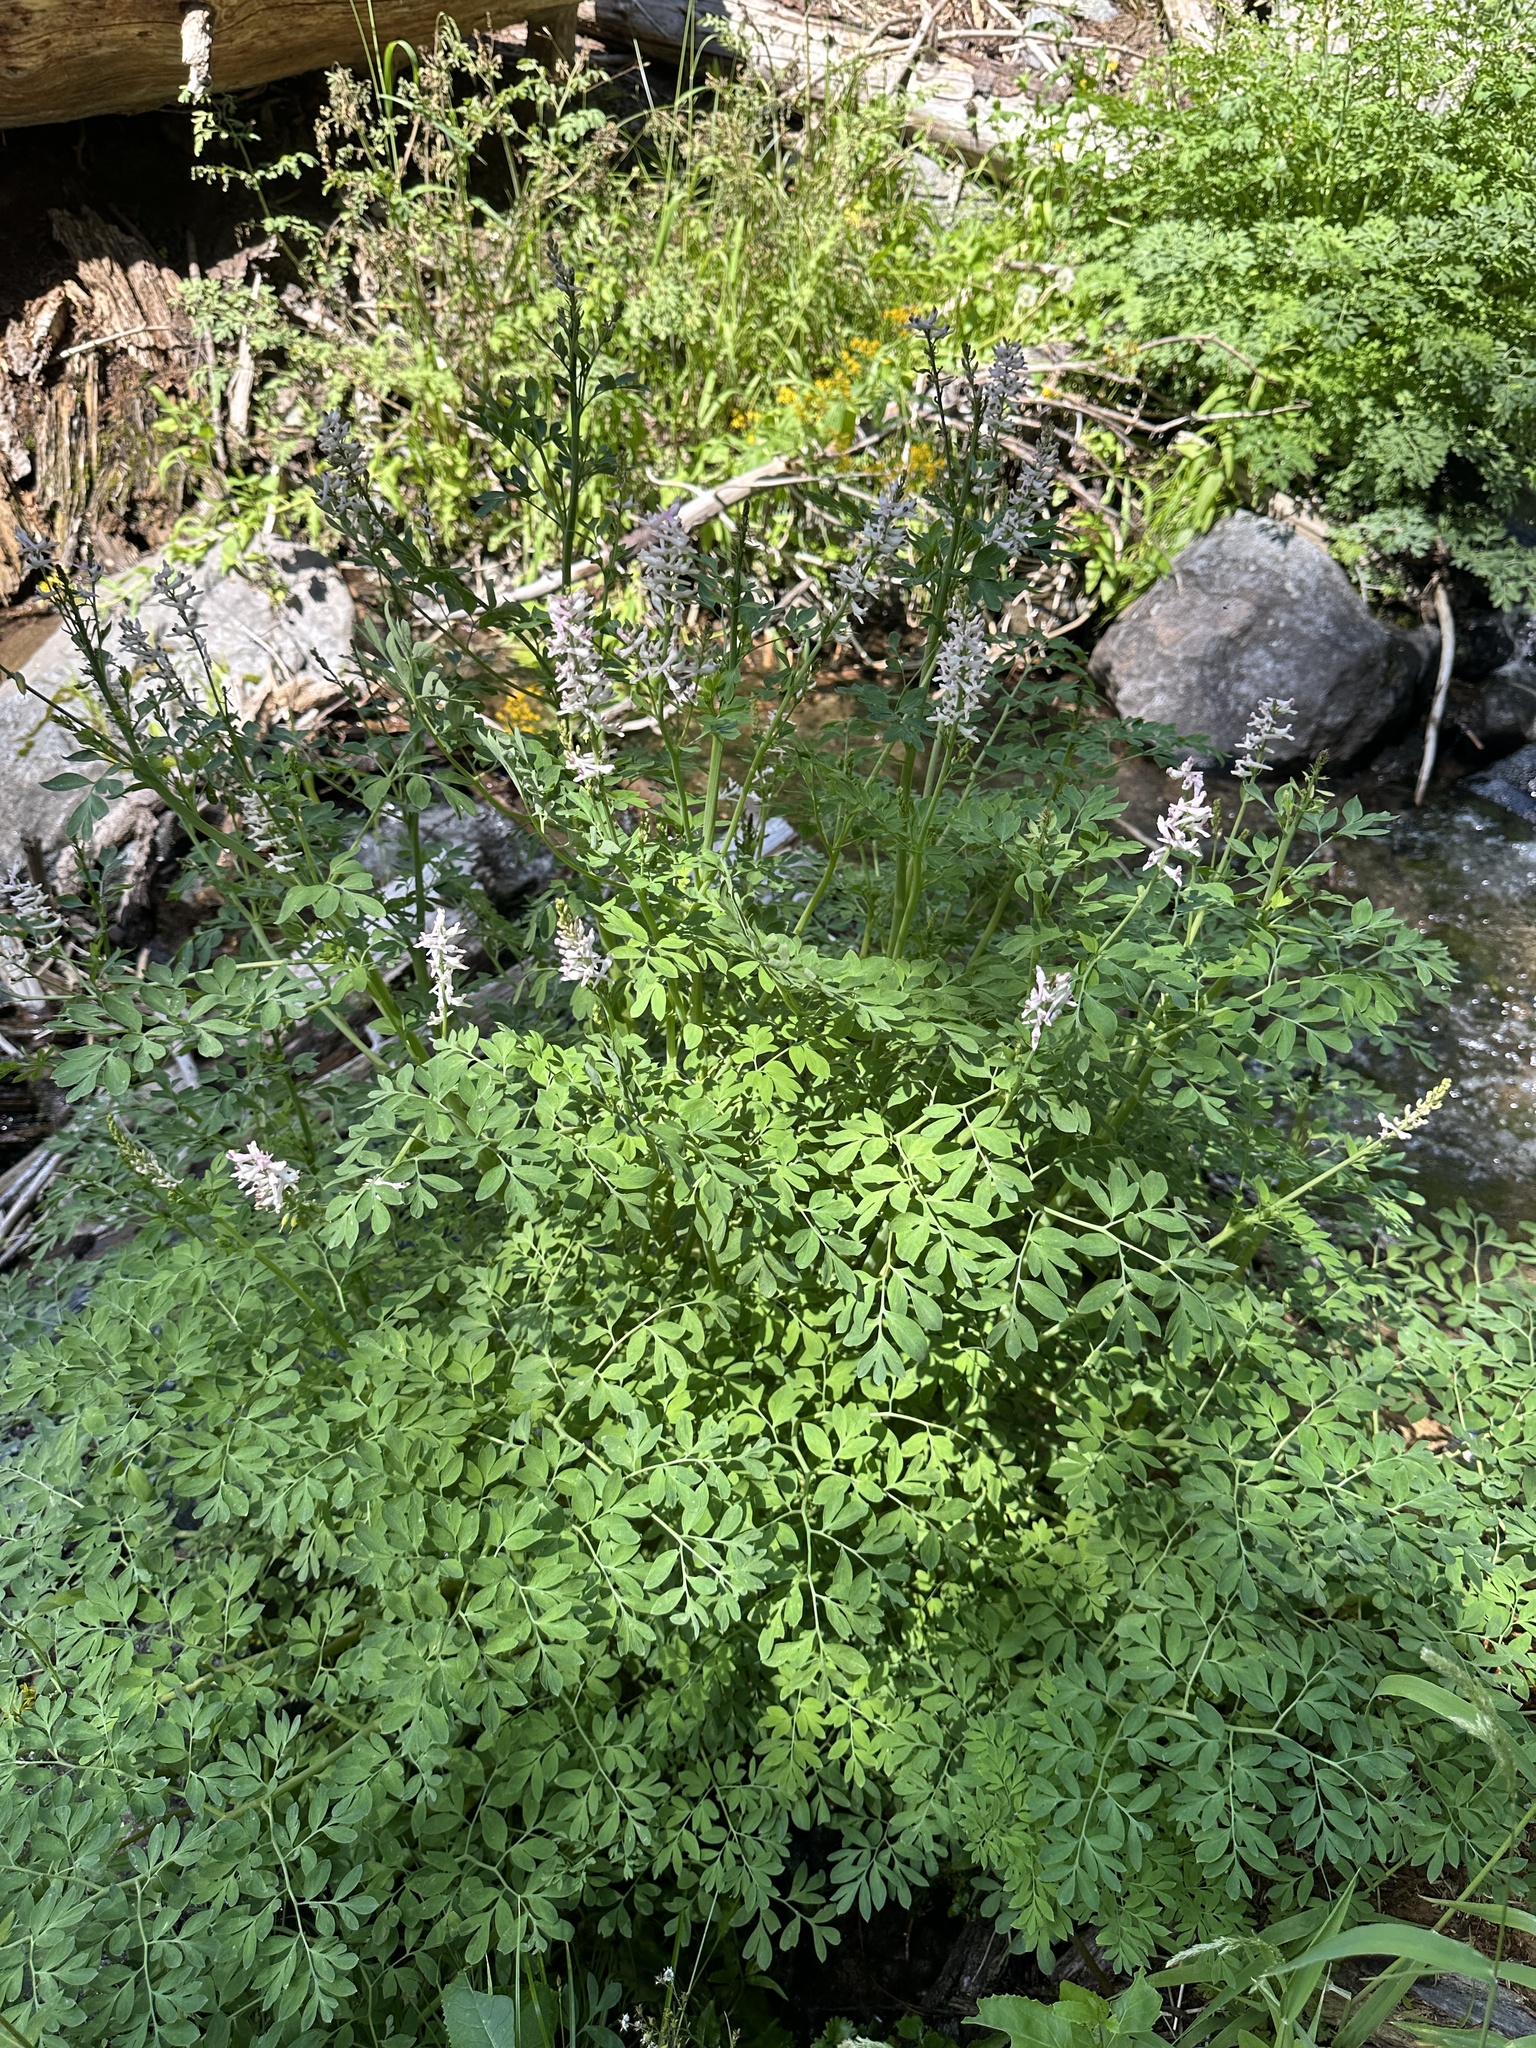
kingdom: Plantae
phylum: Tracheophyta
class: Magnoliopsida
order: Ranunculales
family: Papaveraceae
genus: Corydalis
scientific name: Corydalis caseana
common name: Fitweed
